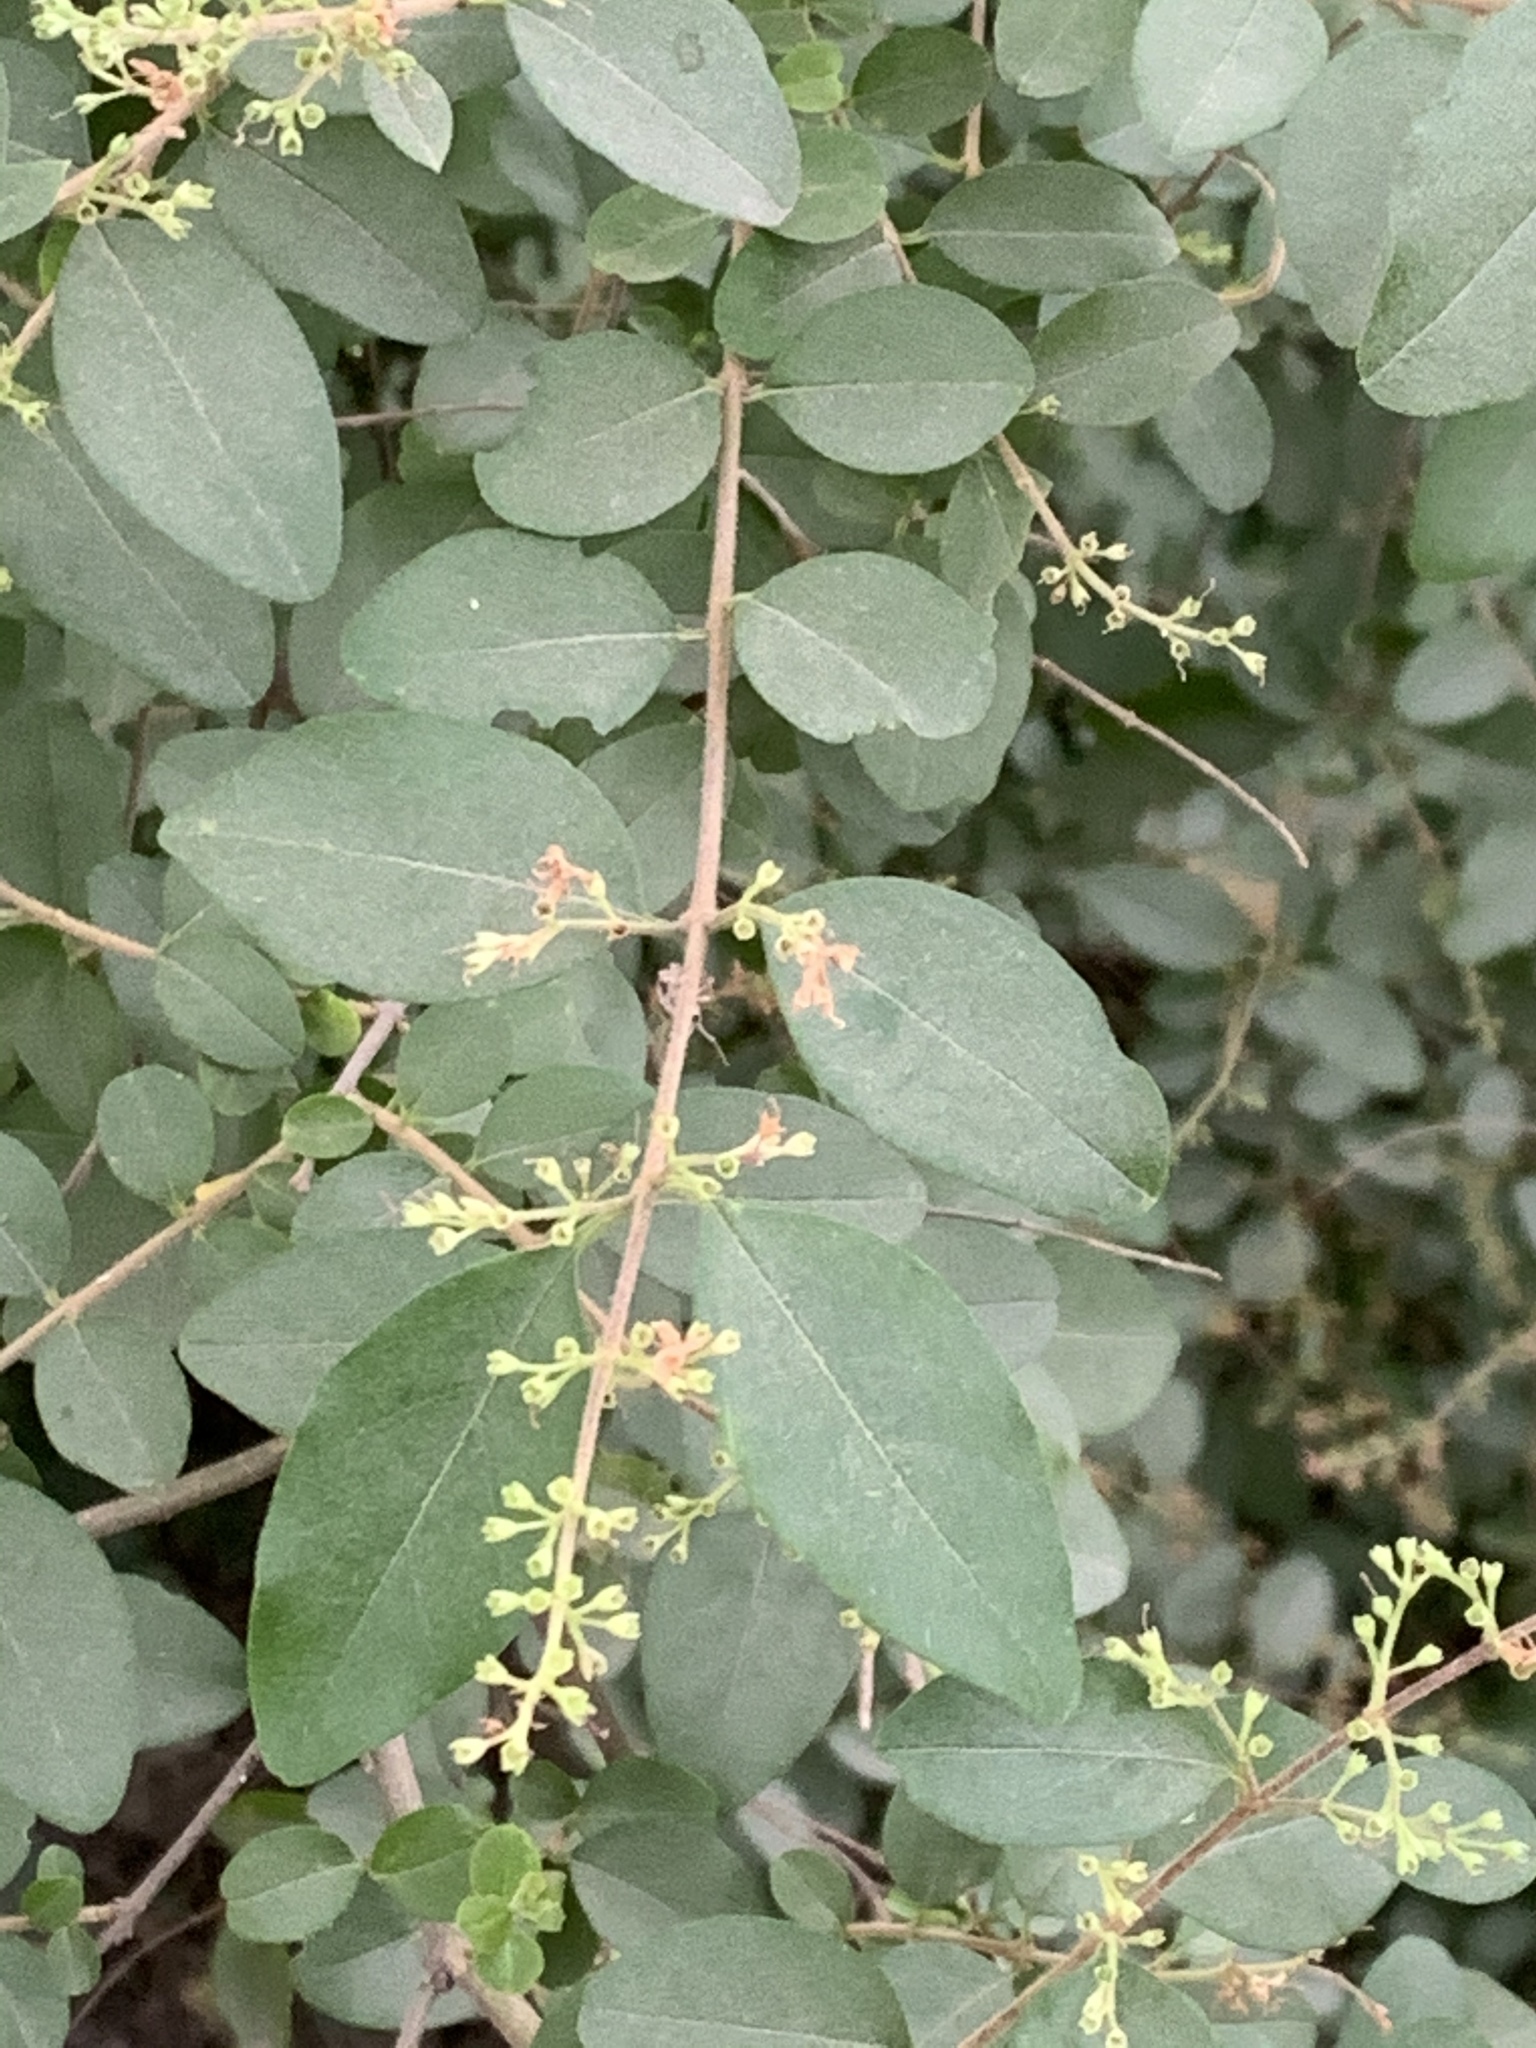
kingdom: Plantae
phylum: Tracheophyta
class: Magnoliopsida
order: Lamiales
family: Oleaceae
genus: Ligustrum
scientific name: Ligustrum sinense
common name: Chinese privet
